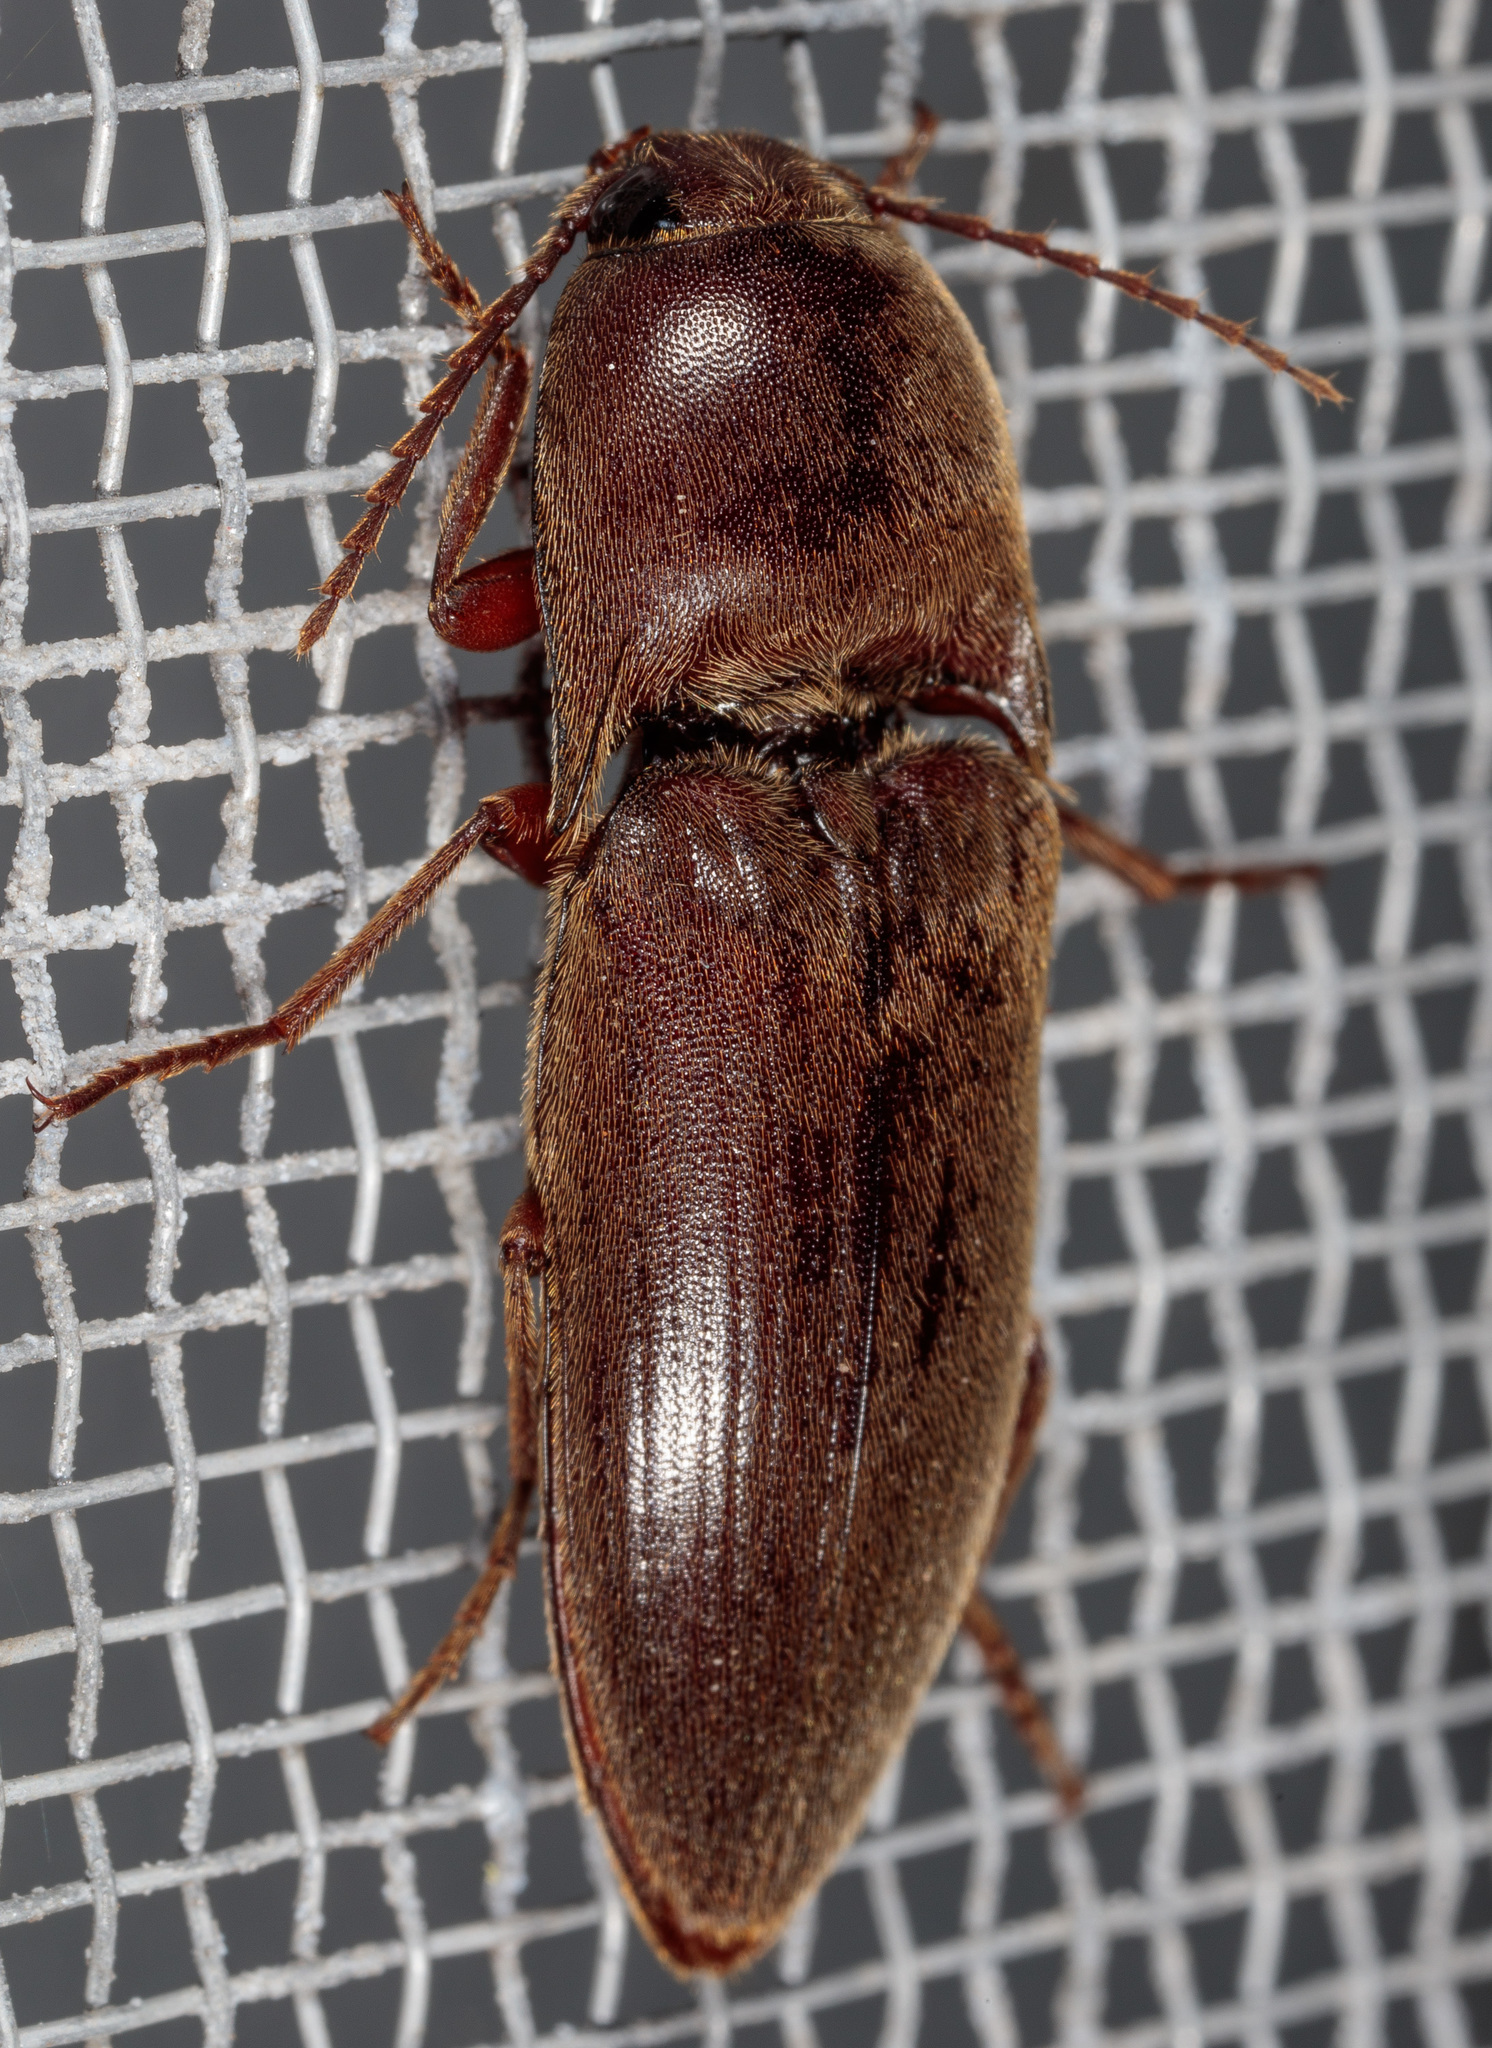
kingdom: Animalia
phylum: Arthropoda
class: Insecta
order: Coleoptera
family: Elateridae
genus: Diplostethus
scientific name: Diplostethus
